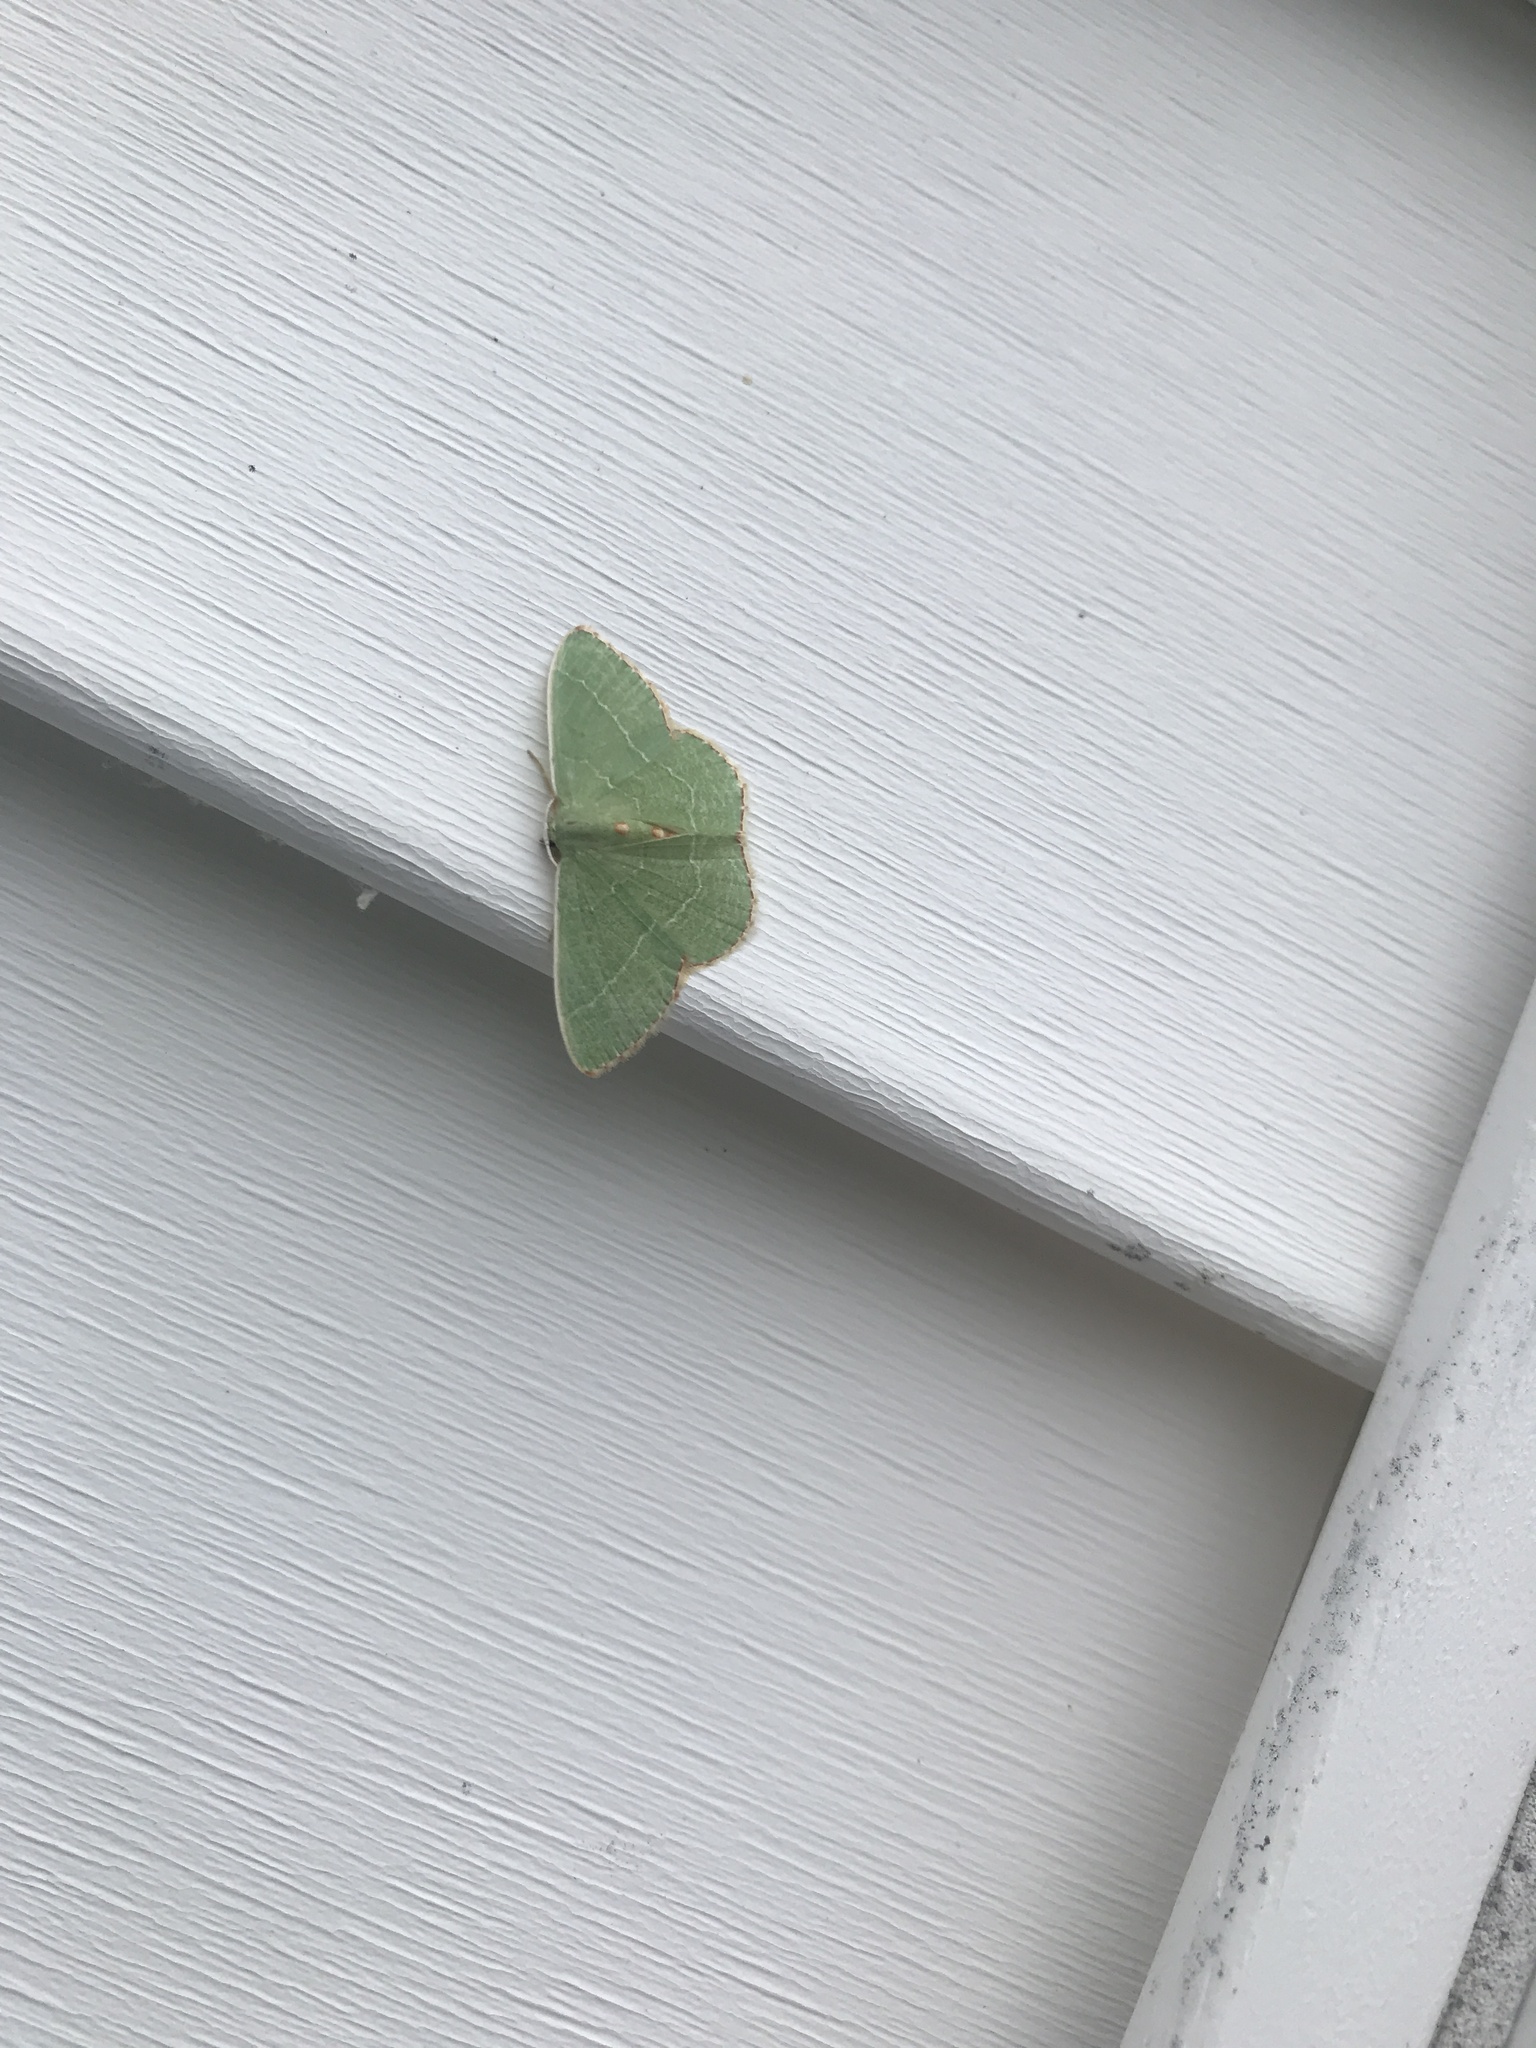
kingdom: Animalia
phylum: Arthropoda
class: Insecta
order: Lepidoptera
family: Geometridae
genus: Nemoria
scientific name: Nemoria lixaria
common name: Red-bordered emerald
